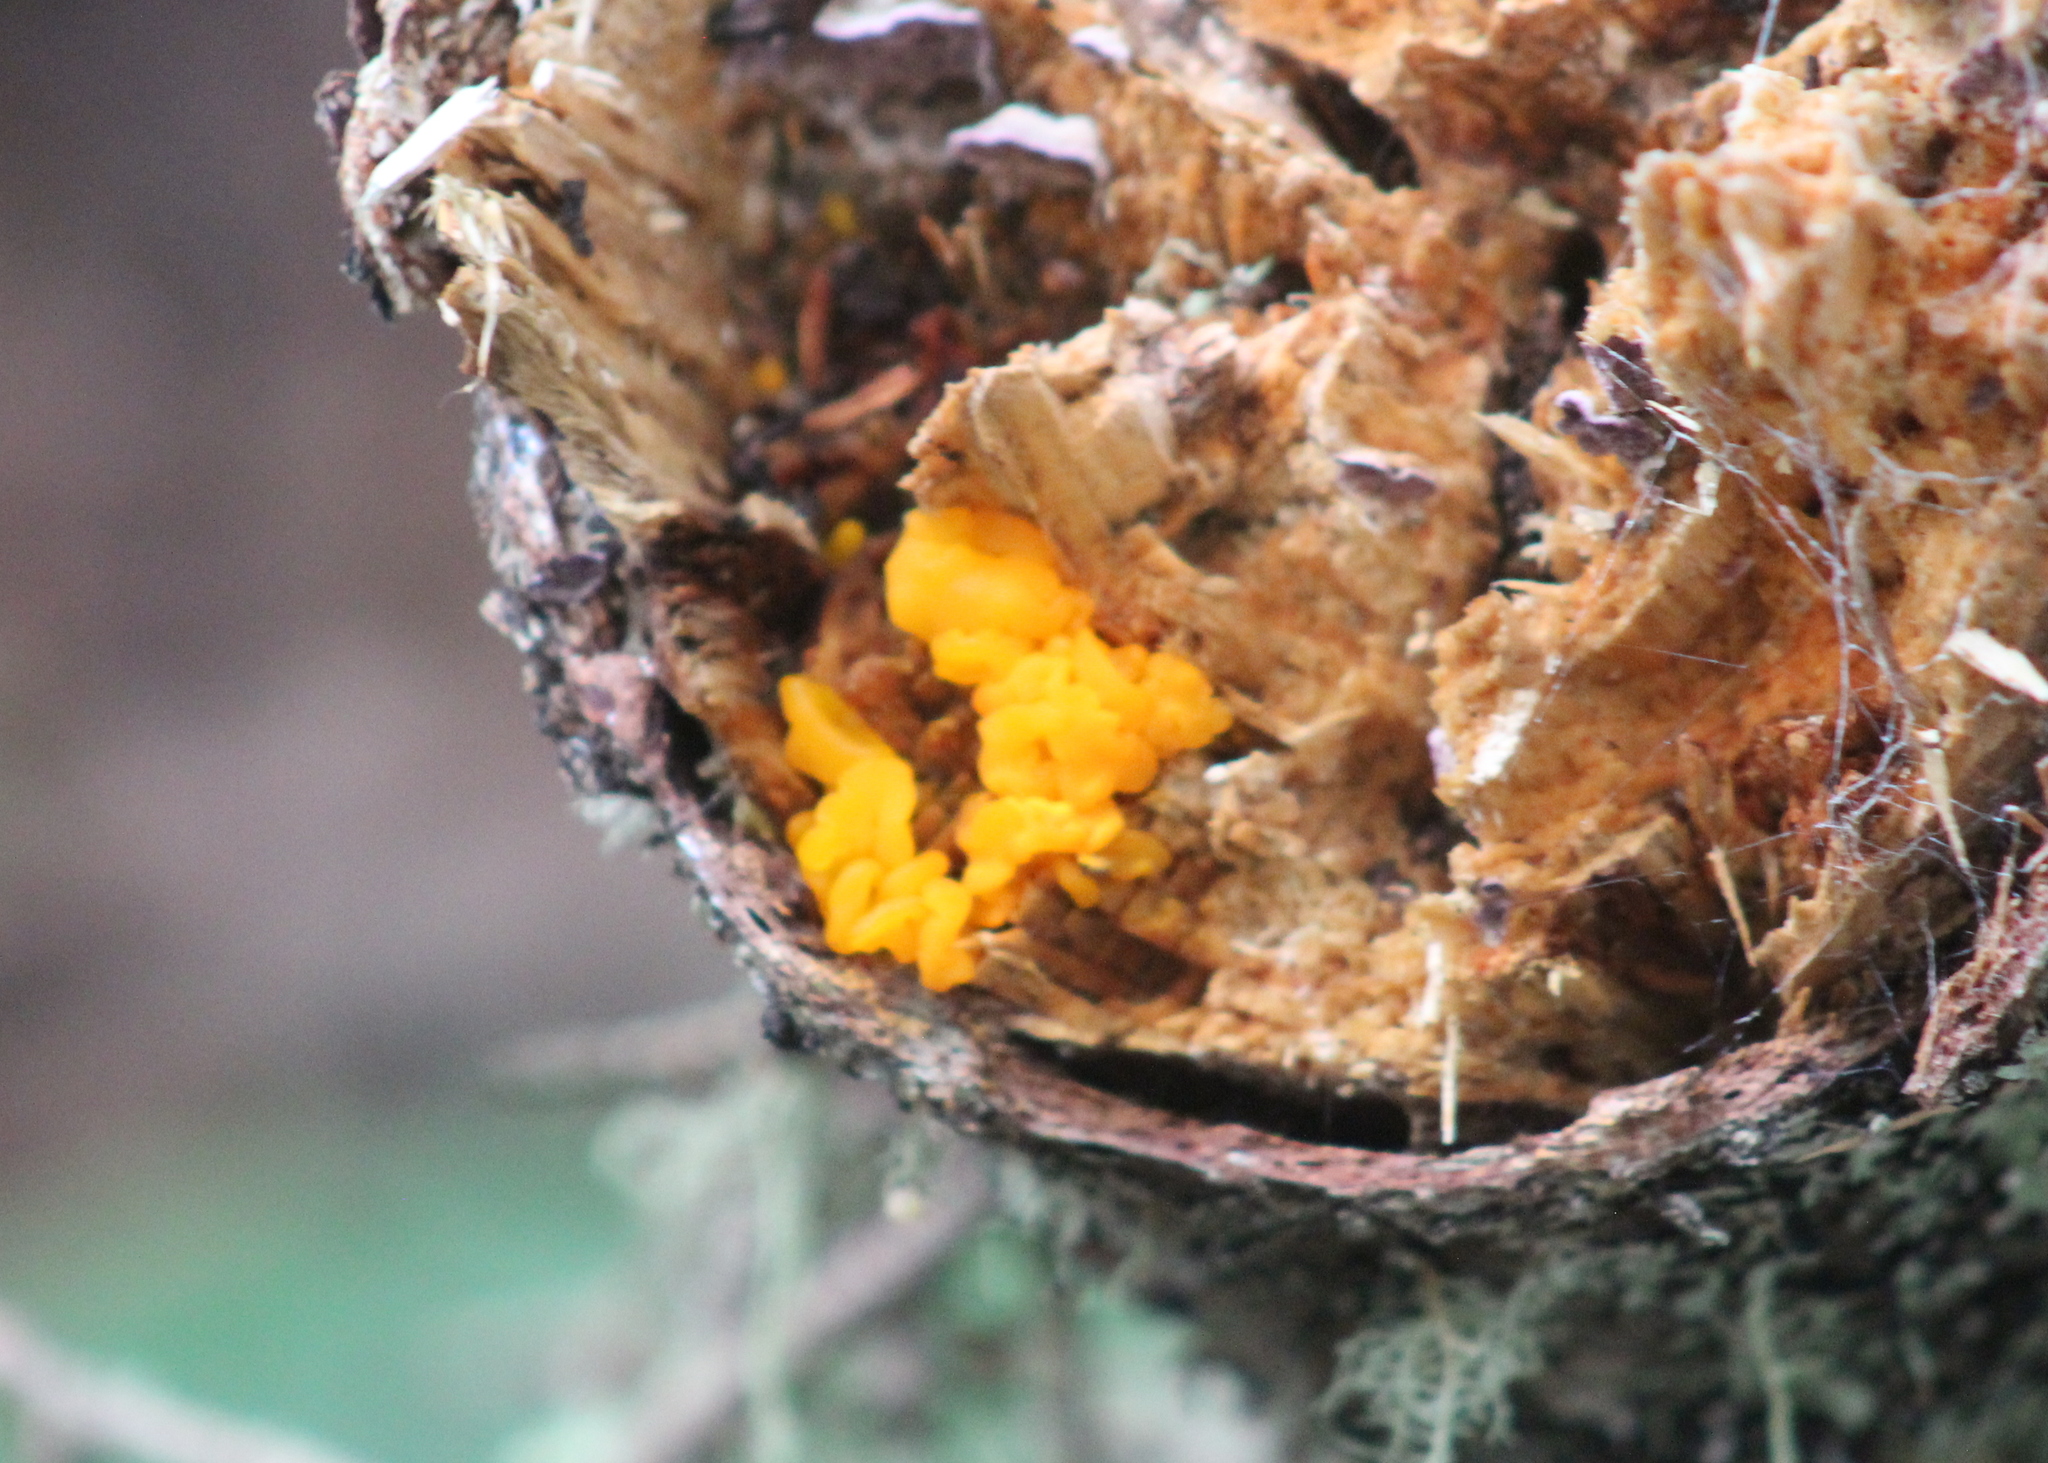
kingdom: Fungi
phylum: Basidiomycota
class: Dacrymycetes
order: Dacrymycetales
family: Dacrymycetaceae
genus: Dacrymyces
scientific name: Dacrymyces chrysospermus
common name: Orange jelly spot
